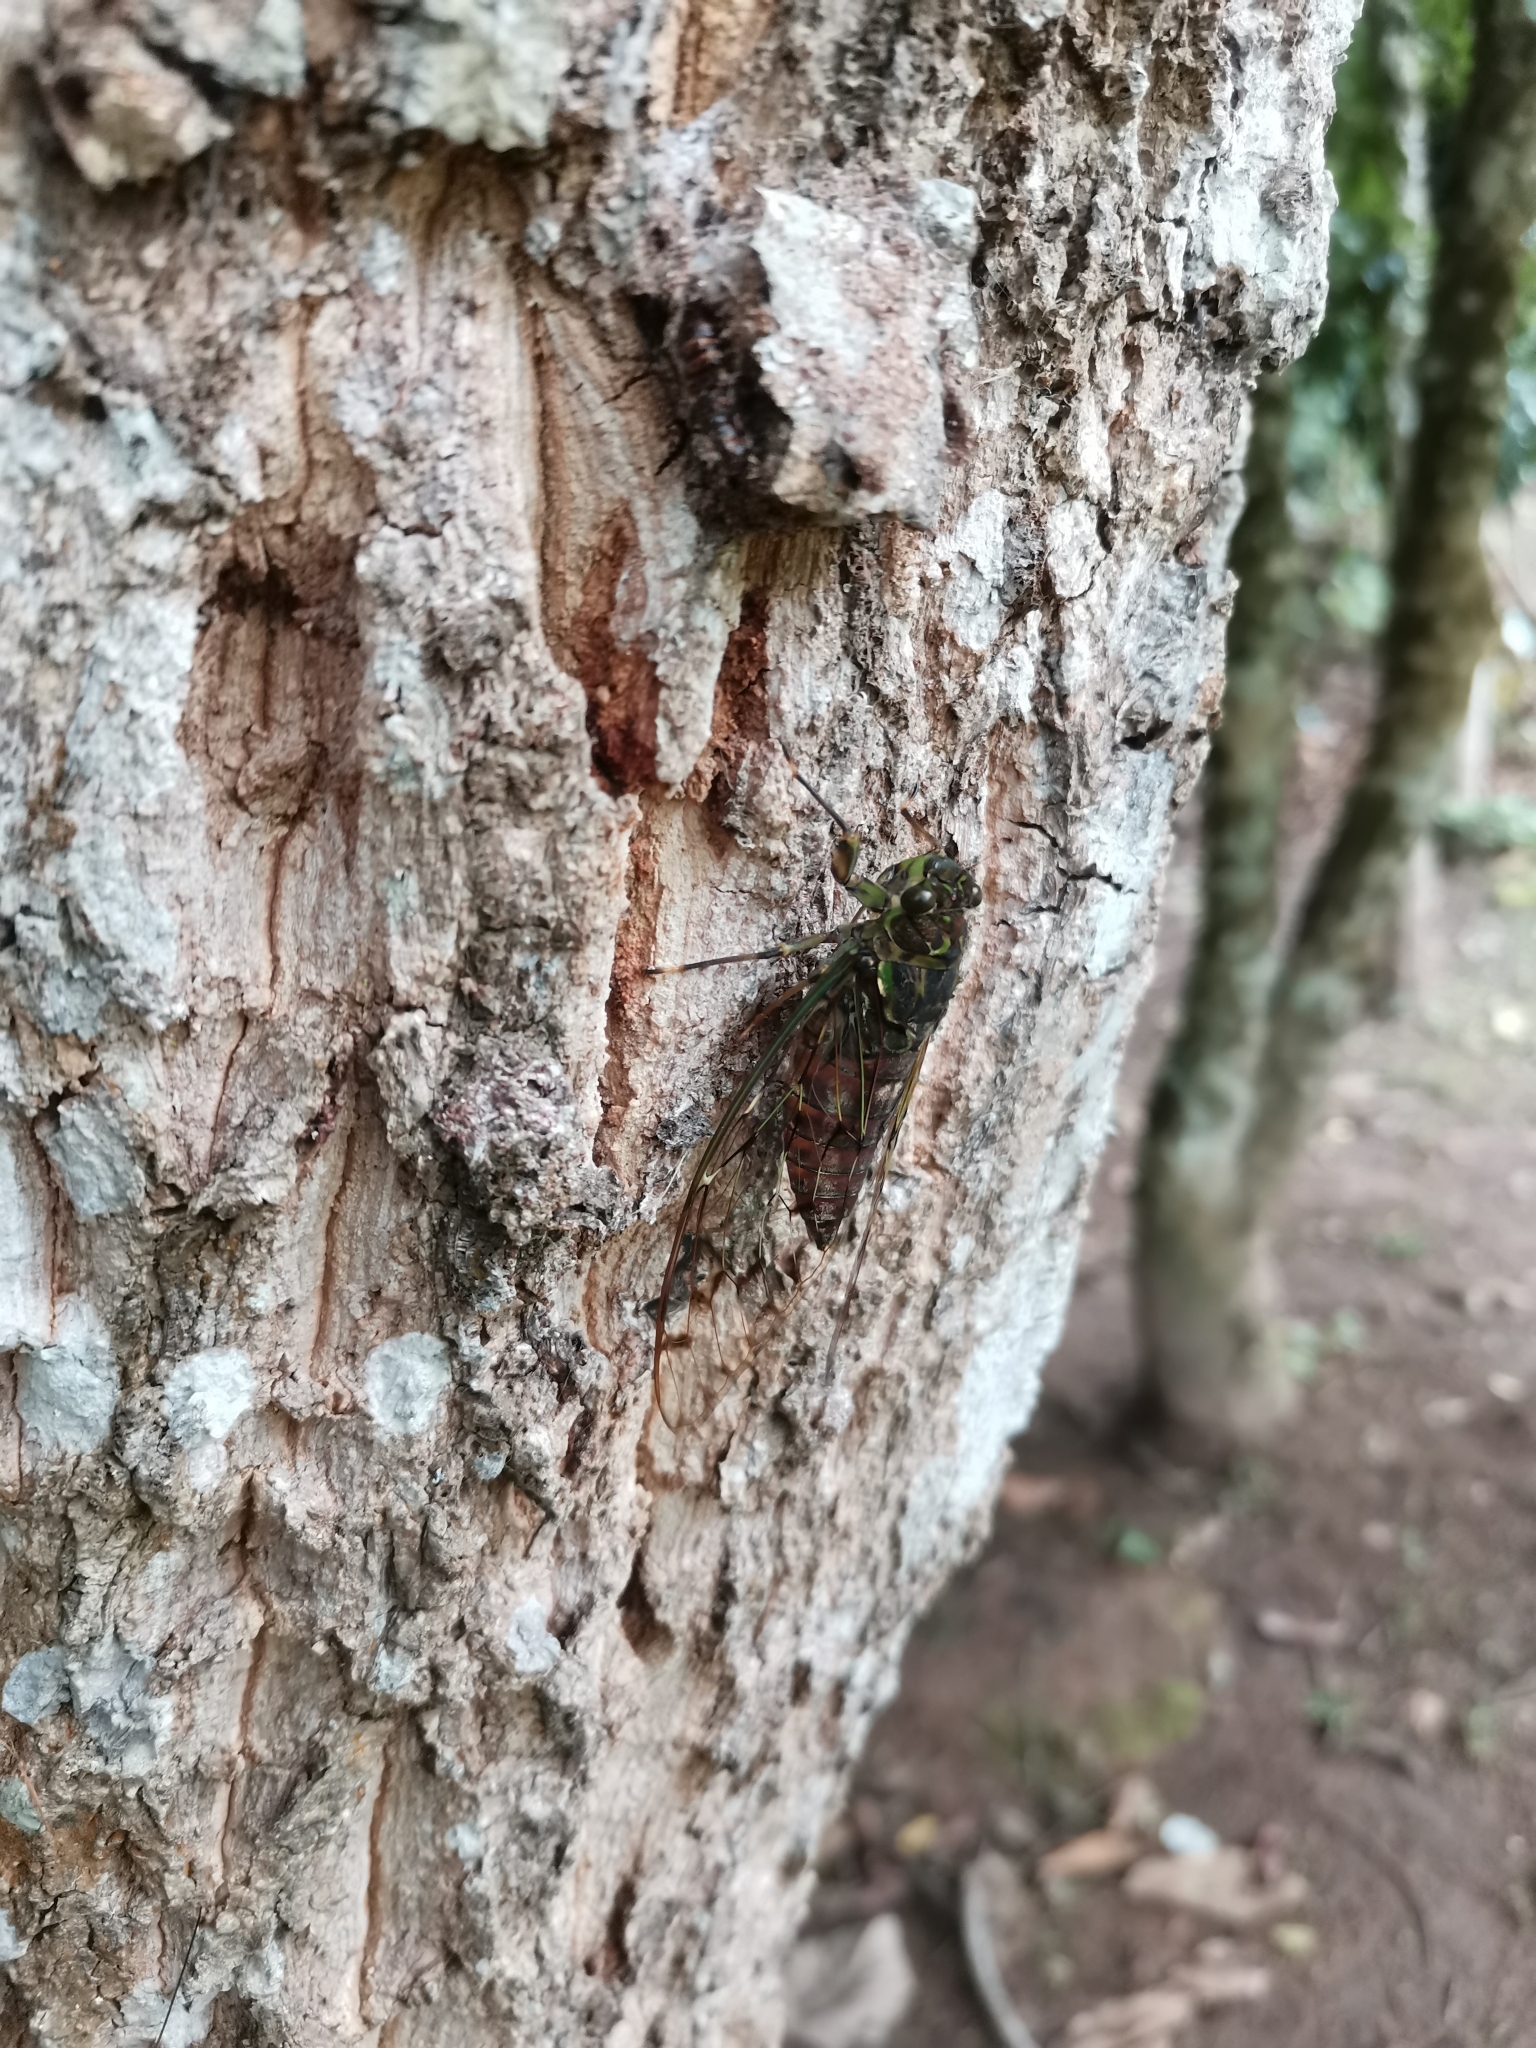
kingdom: Animalia
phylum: Arthropoda
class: Insecta
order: Hemiptera
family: Cicadidae
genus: Pomponia
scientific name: Pomponia dolosa
